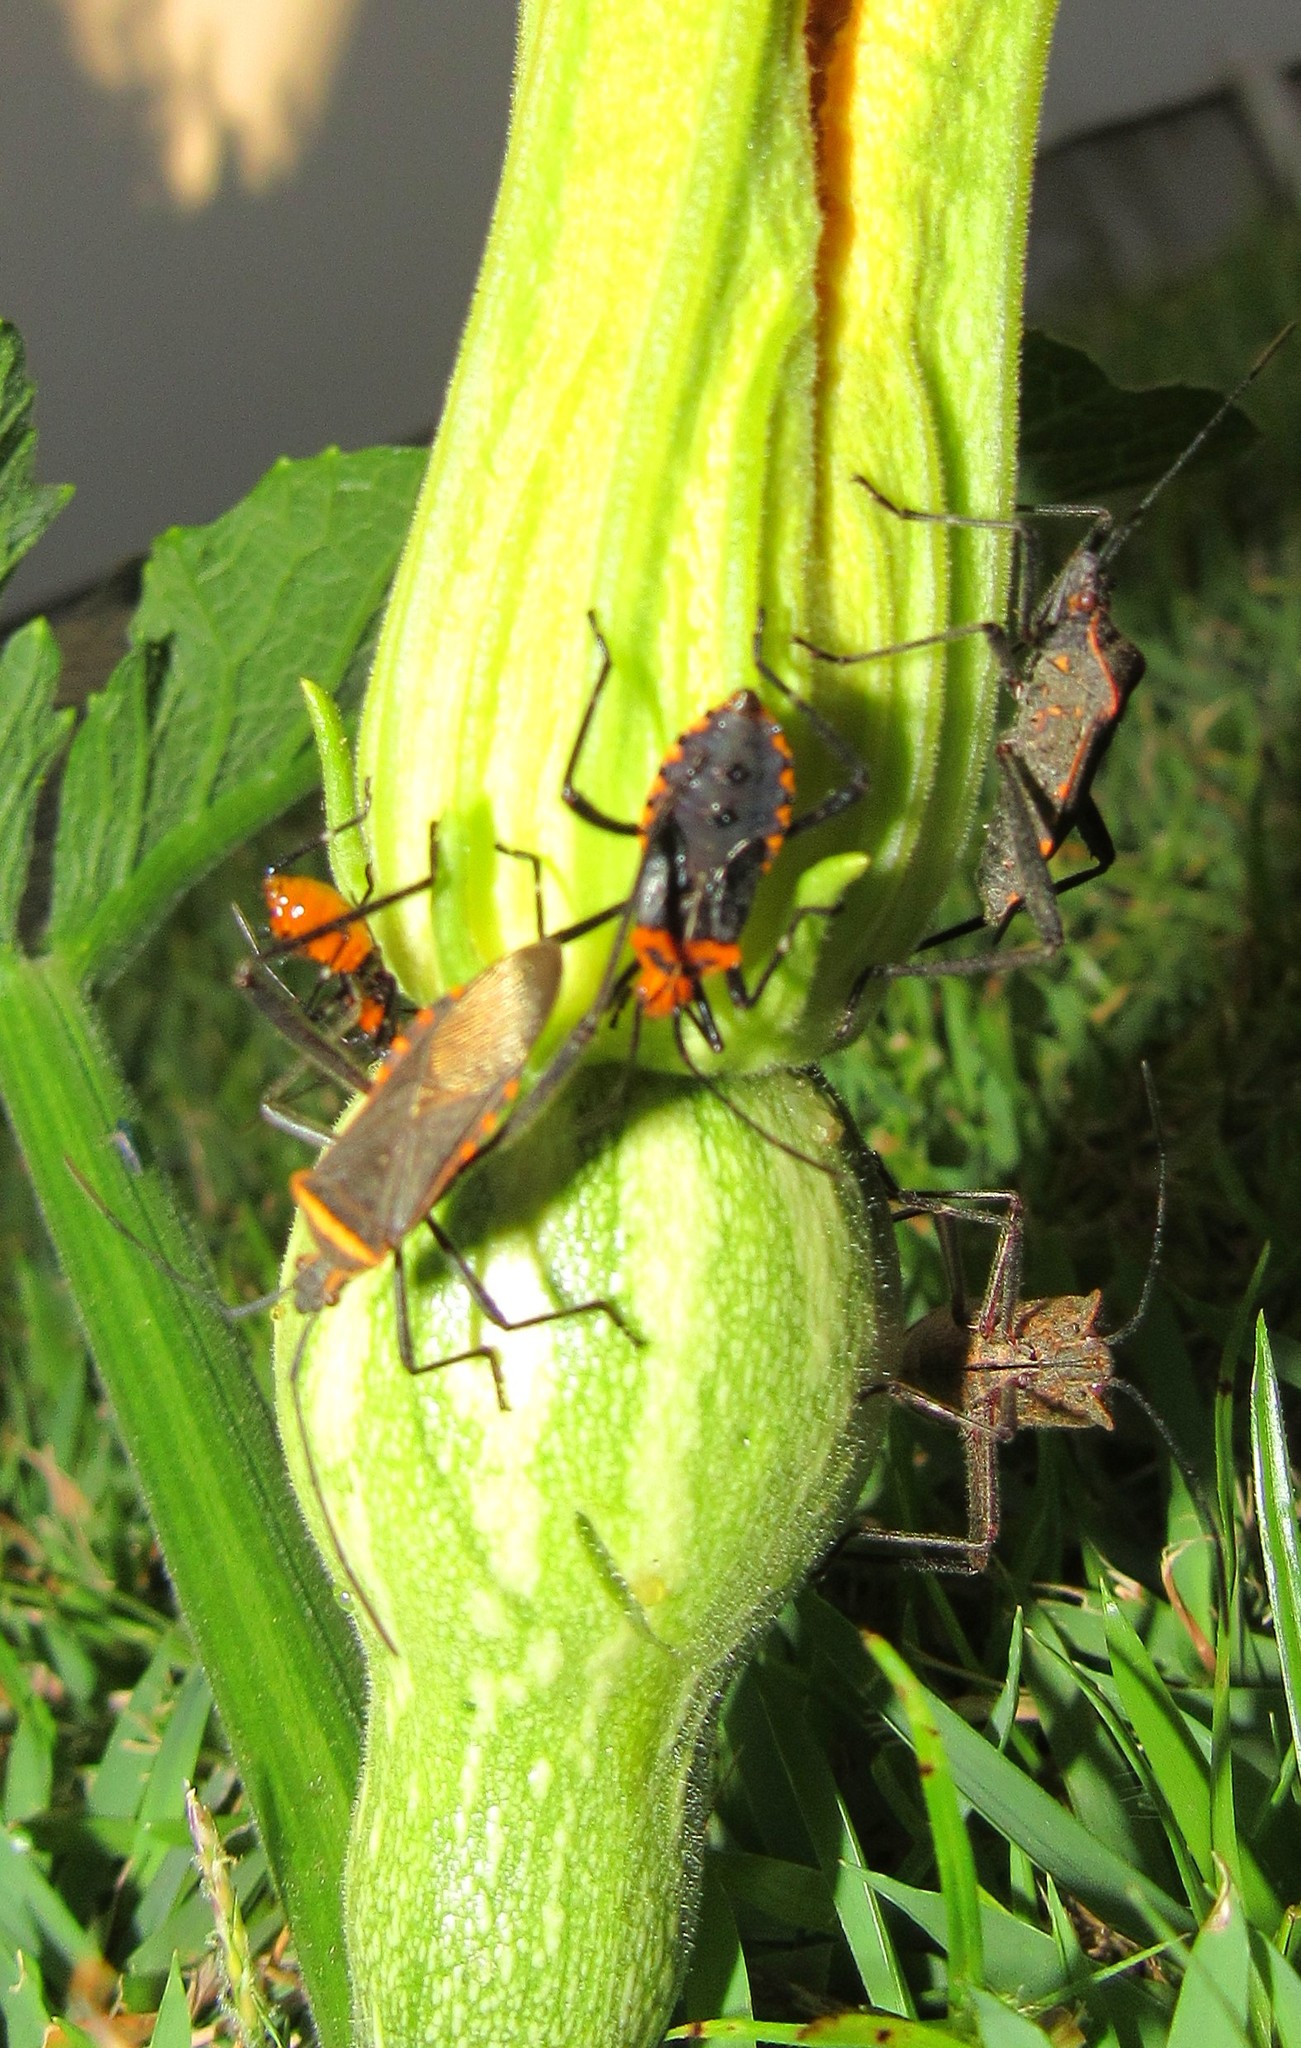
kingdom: Animalia
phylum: Arthropoda
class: Insecta
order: Hemiptera
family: Coreidae
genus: Phthiacnemia
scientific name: Phthiacnemia picta
